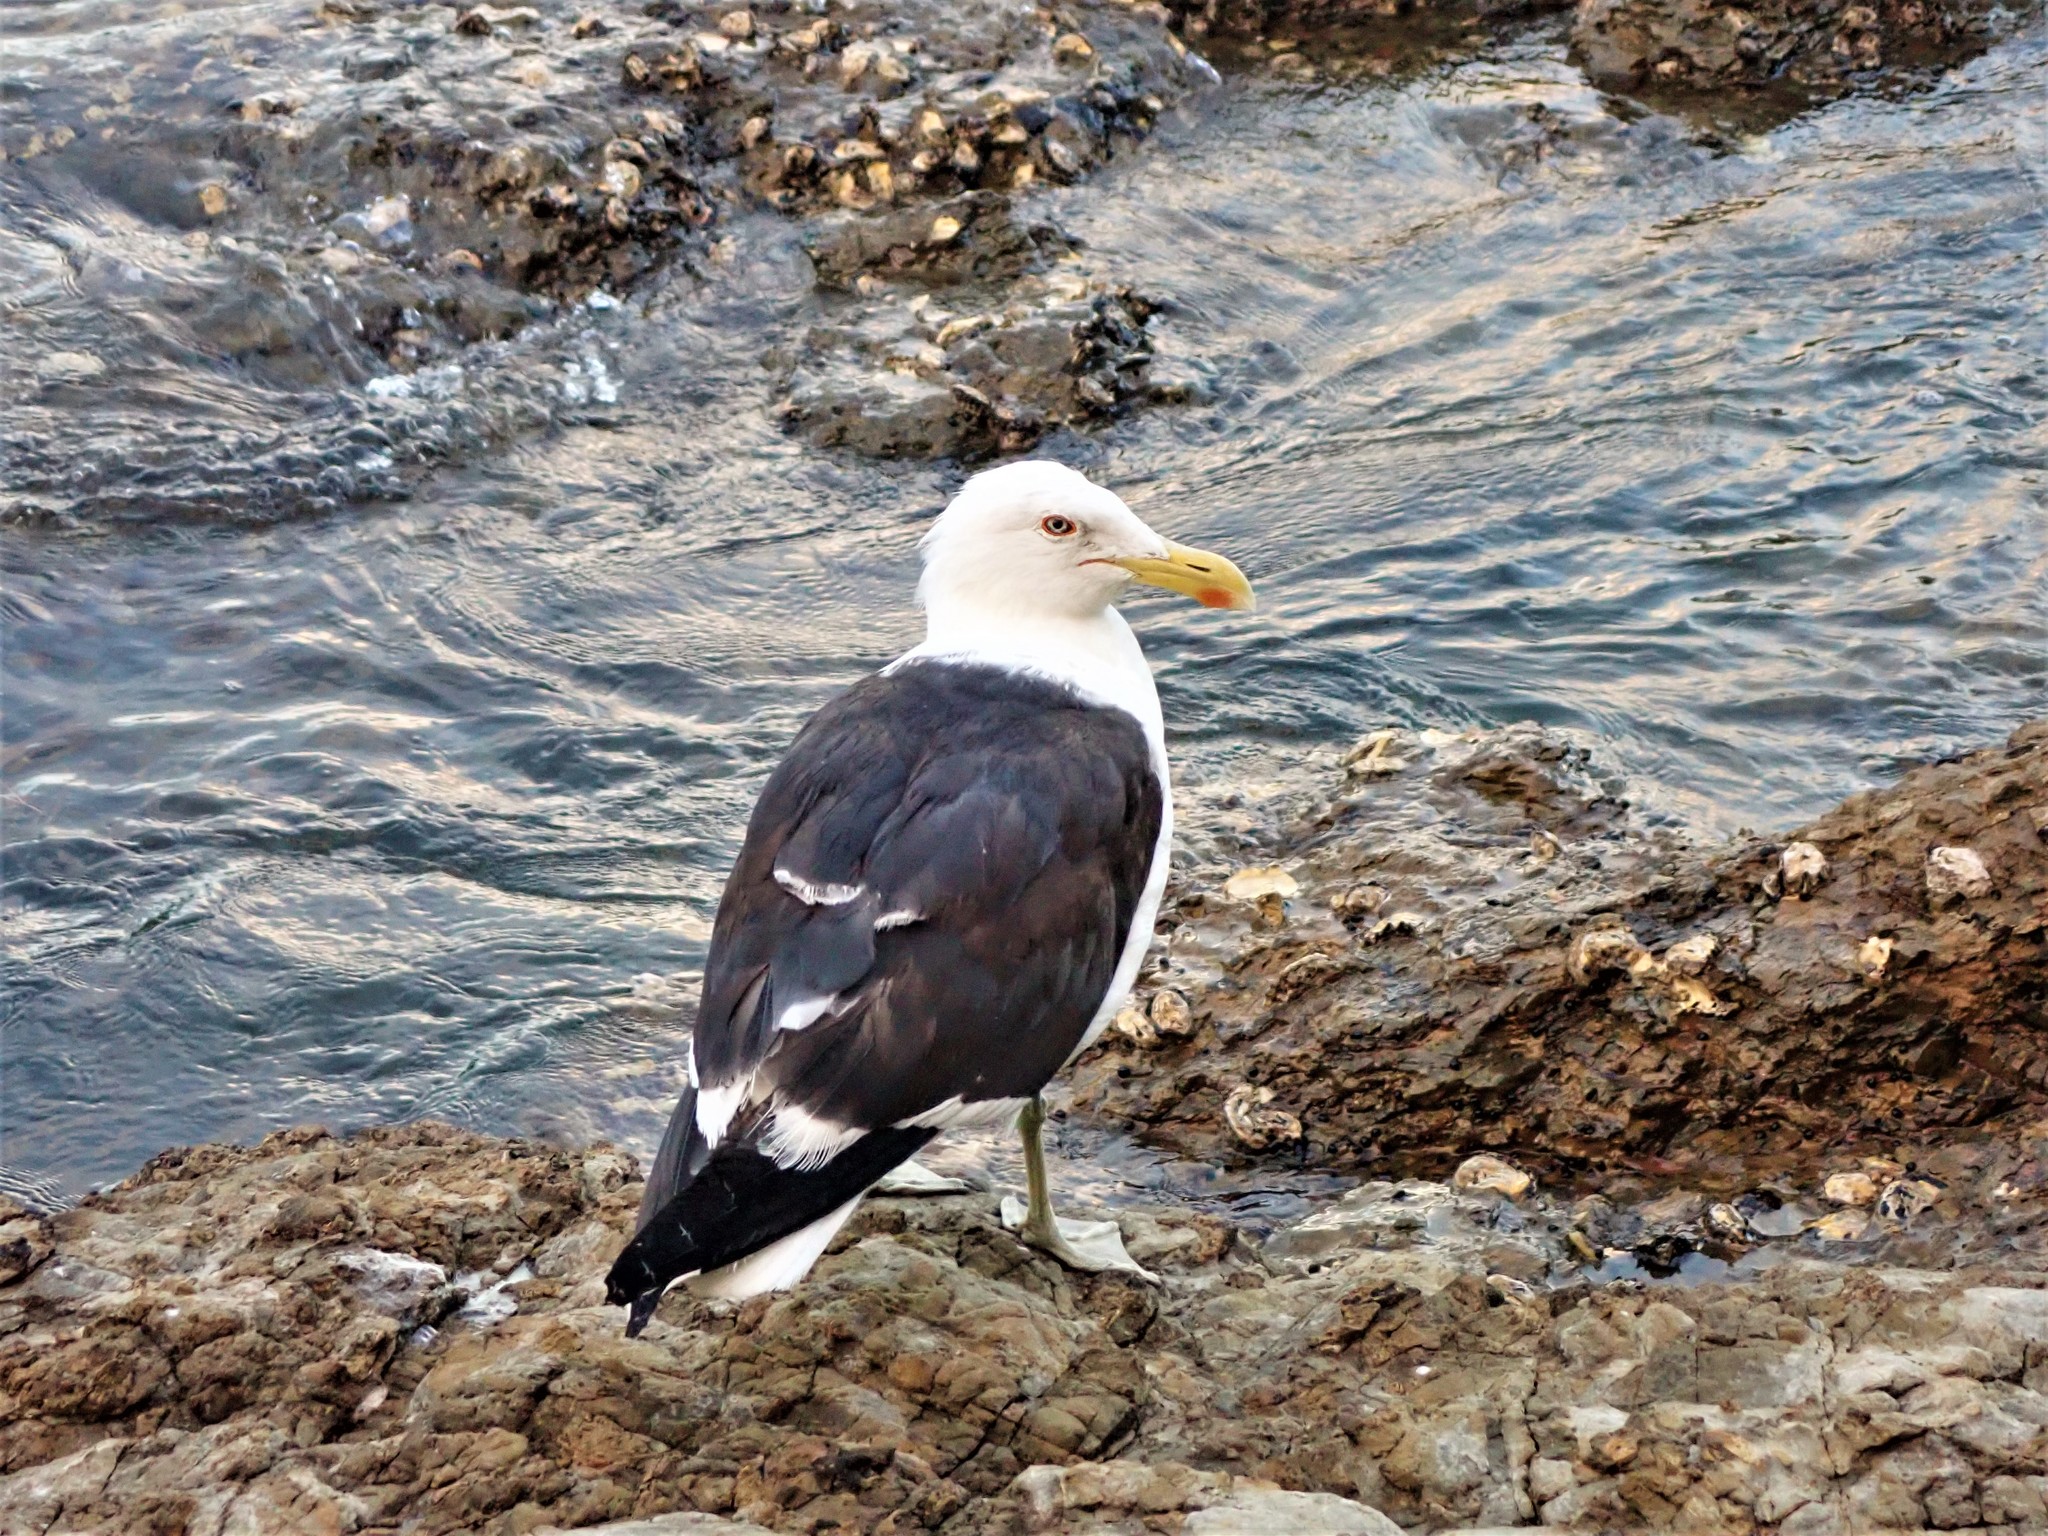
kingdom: Animalia
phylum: Chordata
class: Aves
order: Charadriiformes
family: Laridae
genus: Larus
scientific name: Larus dominicanus
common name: Kelp gull
